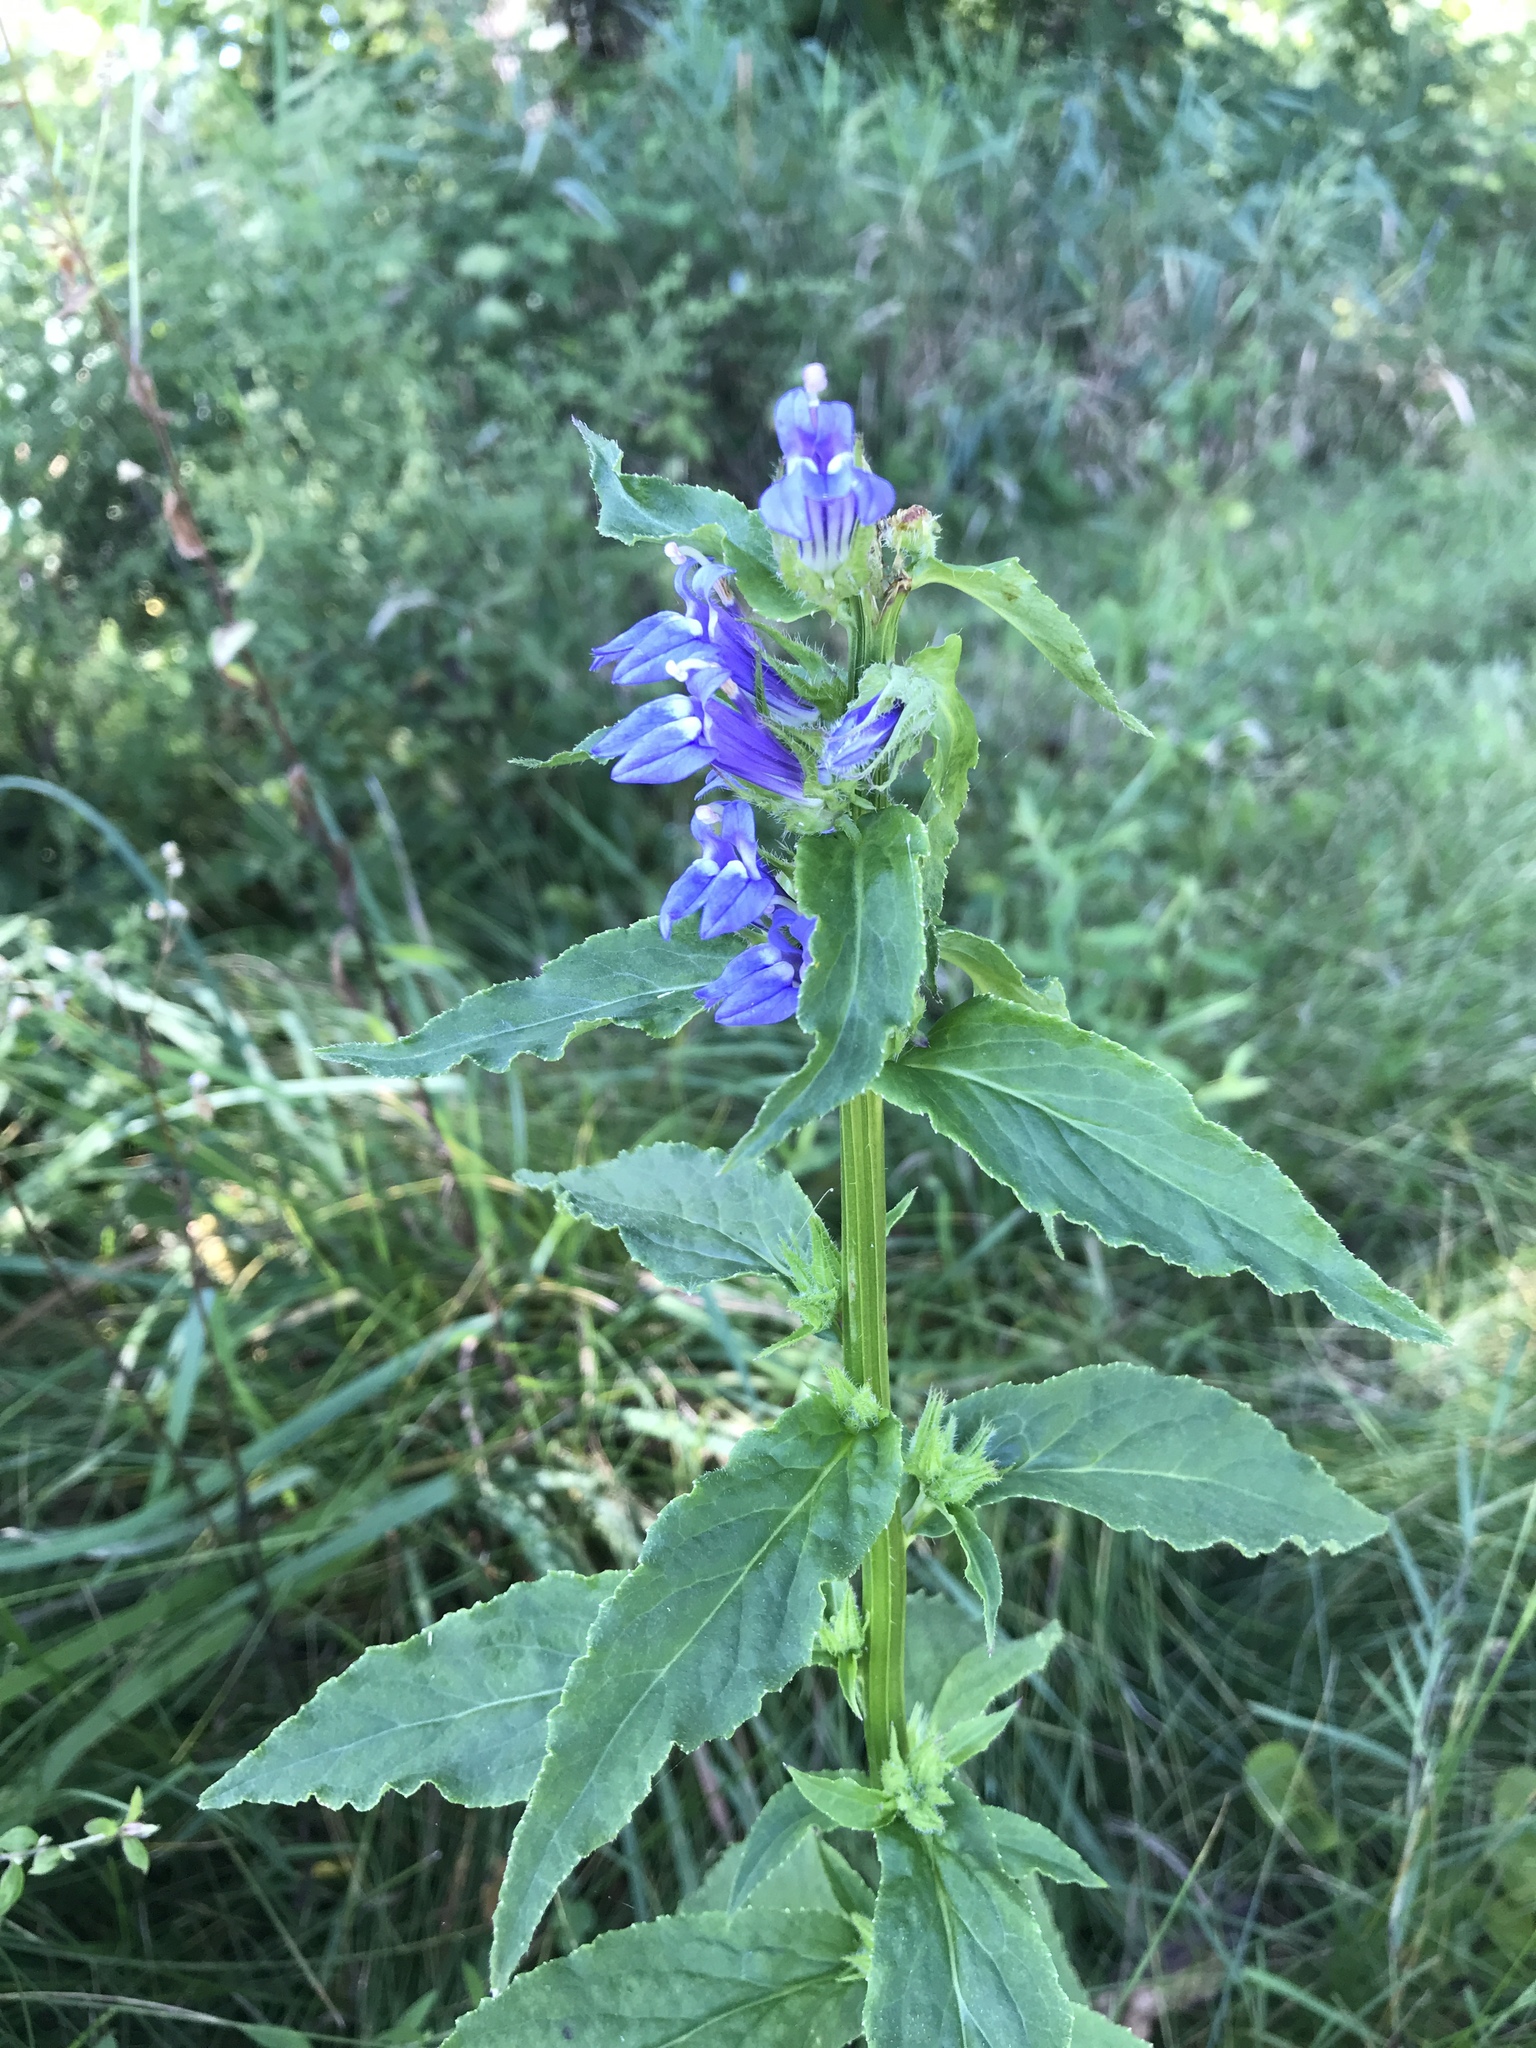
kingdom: Plantae
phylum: Tracheophyta
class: Magnoliopsida
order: Asterales
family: Campanulaceae
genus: Lobelia
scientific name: Lobelia siphilitica
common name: Great lobelia
